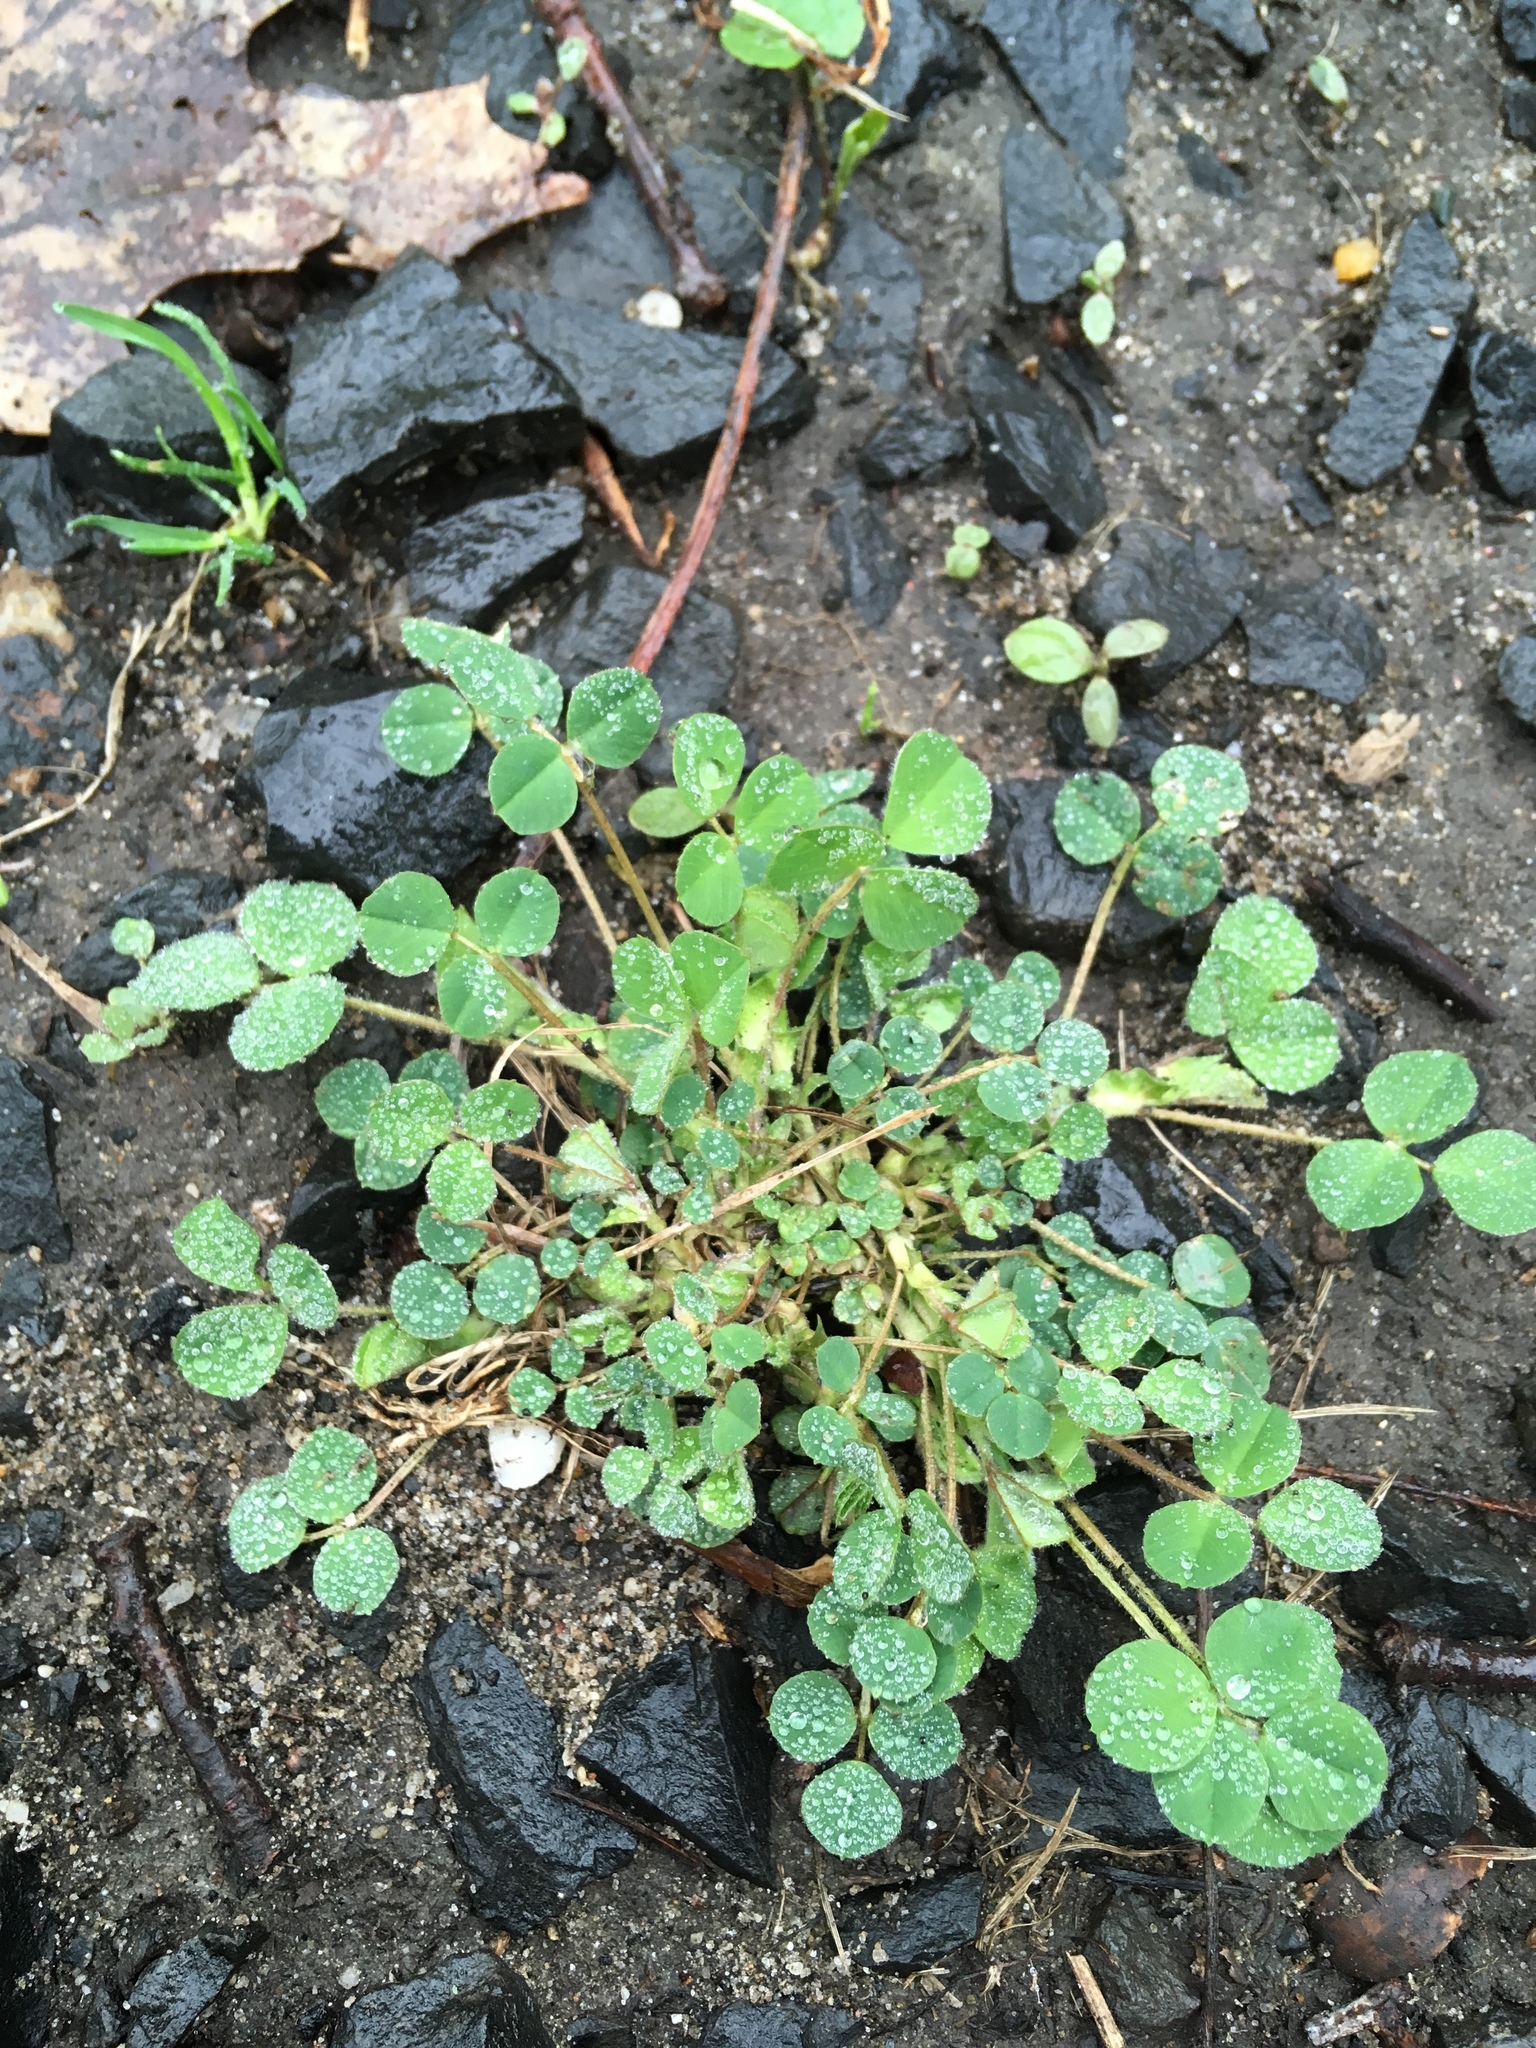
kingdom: Plantae
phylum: Tracheophyta
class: Magnoliopsida
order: Fabales
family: Fabaceae
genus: Medicago
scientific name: Medicago lupulina
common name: Black medick
